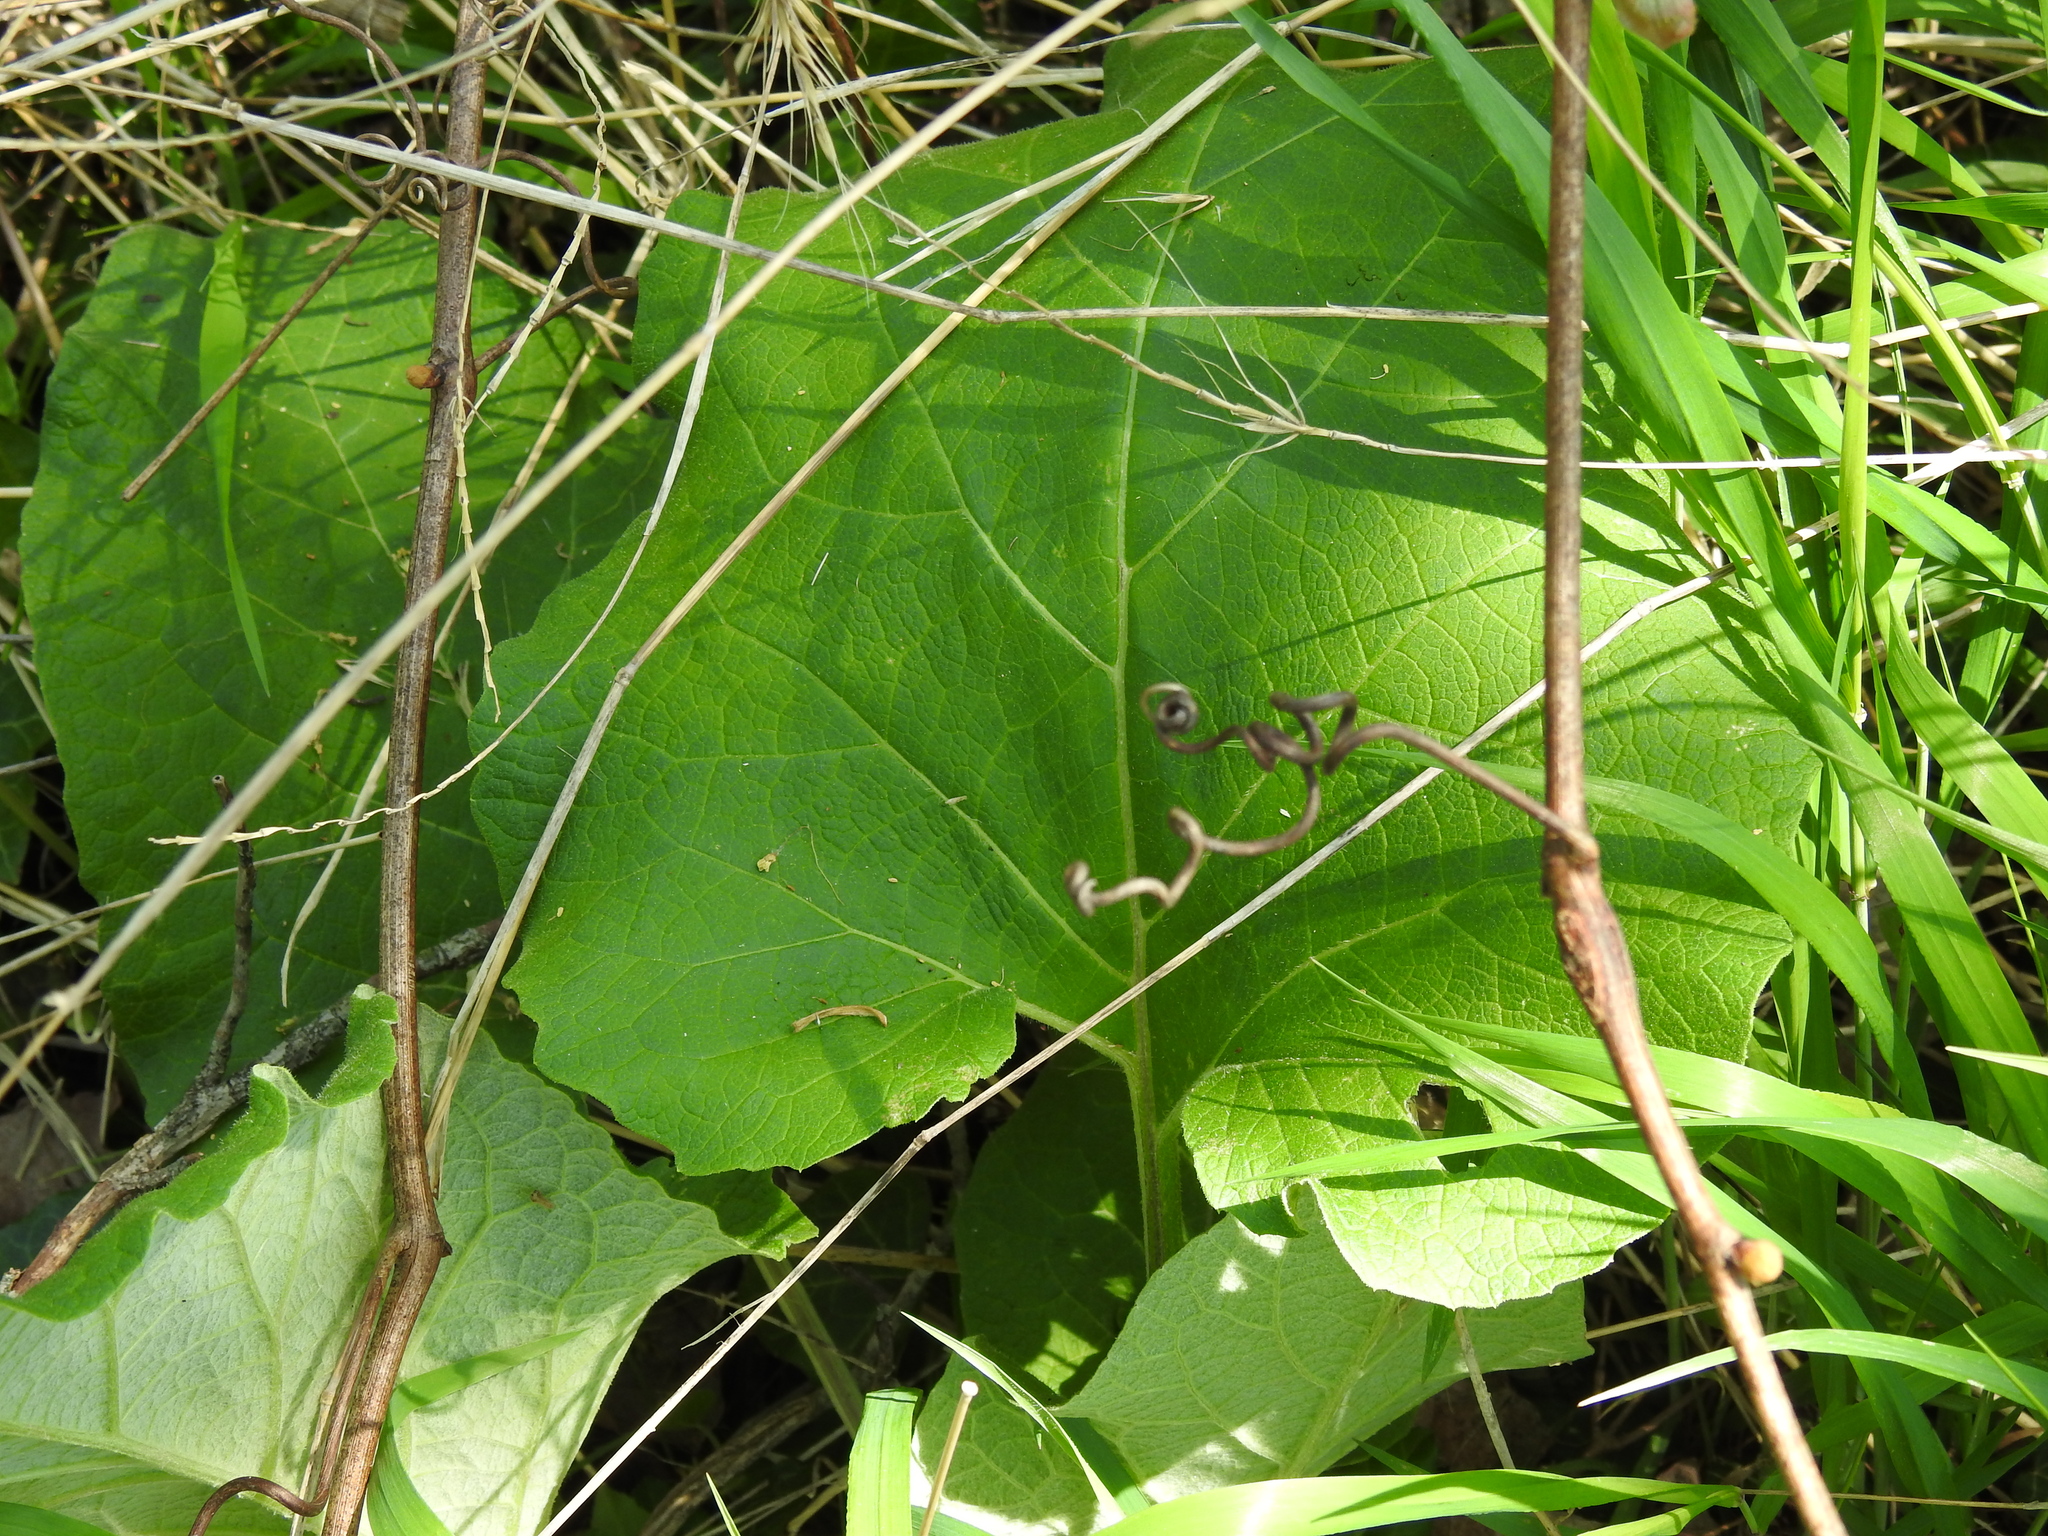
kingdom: Plantae
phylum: Tracheophyta
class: Magnoliopsida
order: Asterales
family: Asteraceae
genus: Tussilago
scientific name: Tussilago farfara
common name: Coltsfoot
